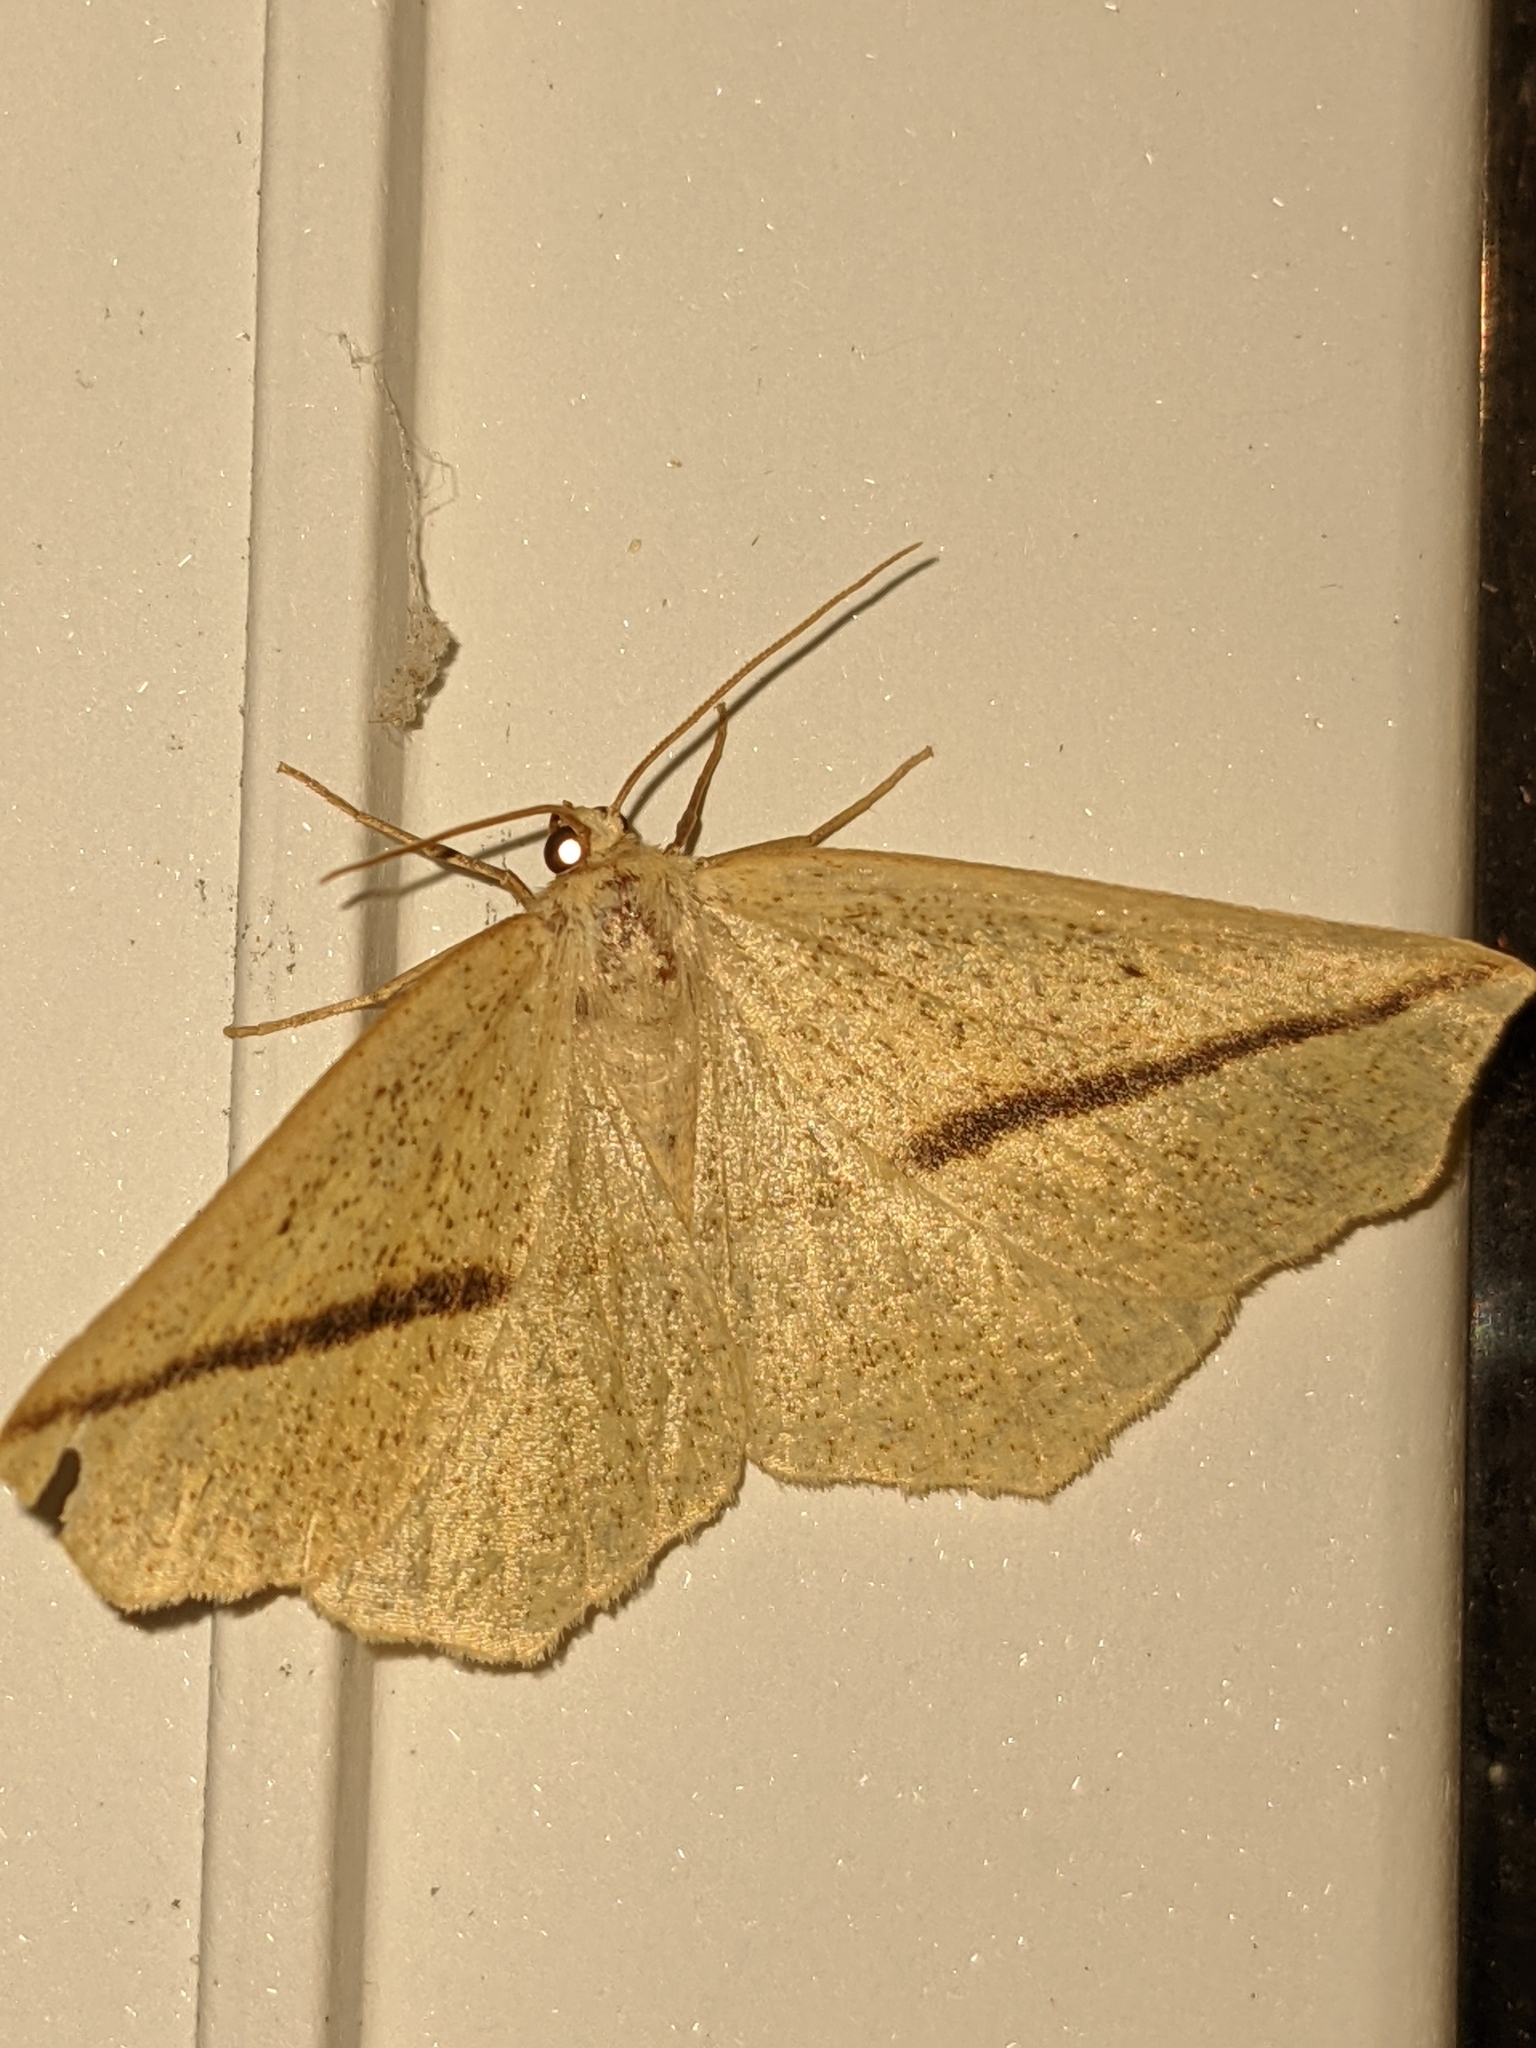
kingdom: Animalia
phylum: Arthropoda
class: Insecta
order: Lepidoptera
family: Geometridae
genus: Tetracis
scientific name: Tetracis crocallata
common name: Yellow slant-line
